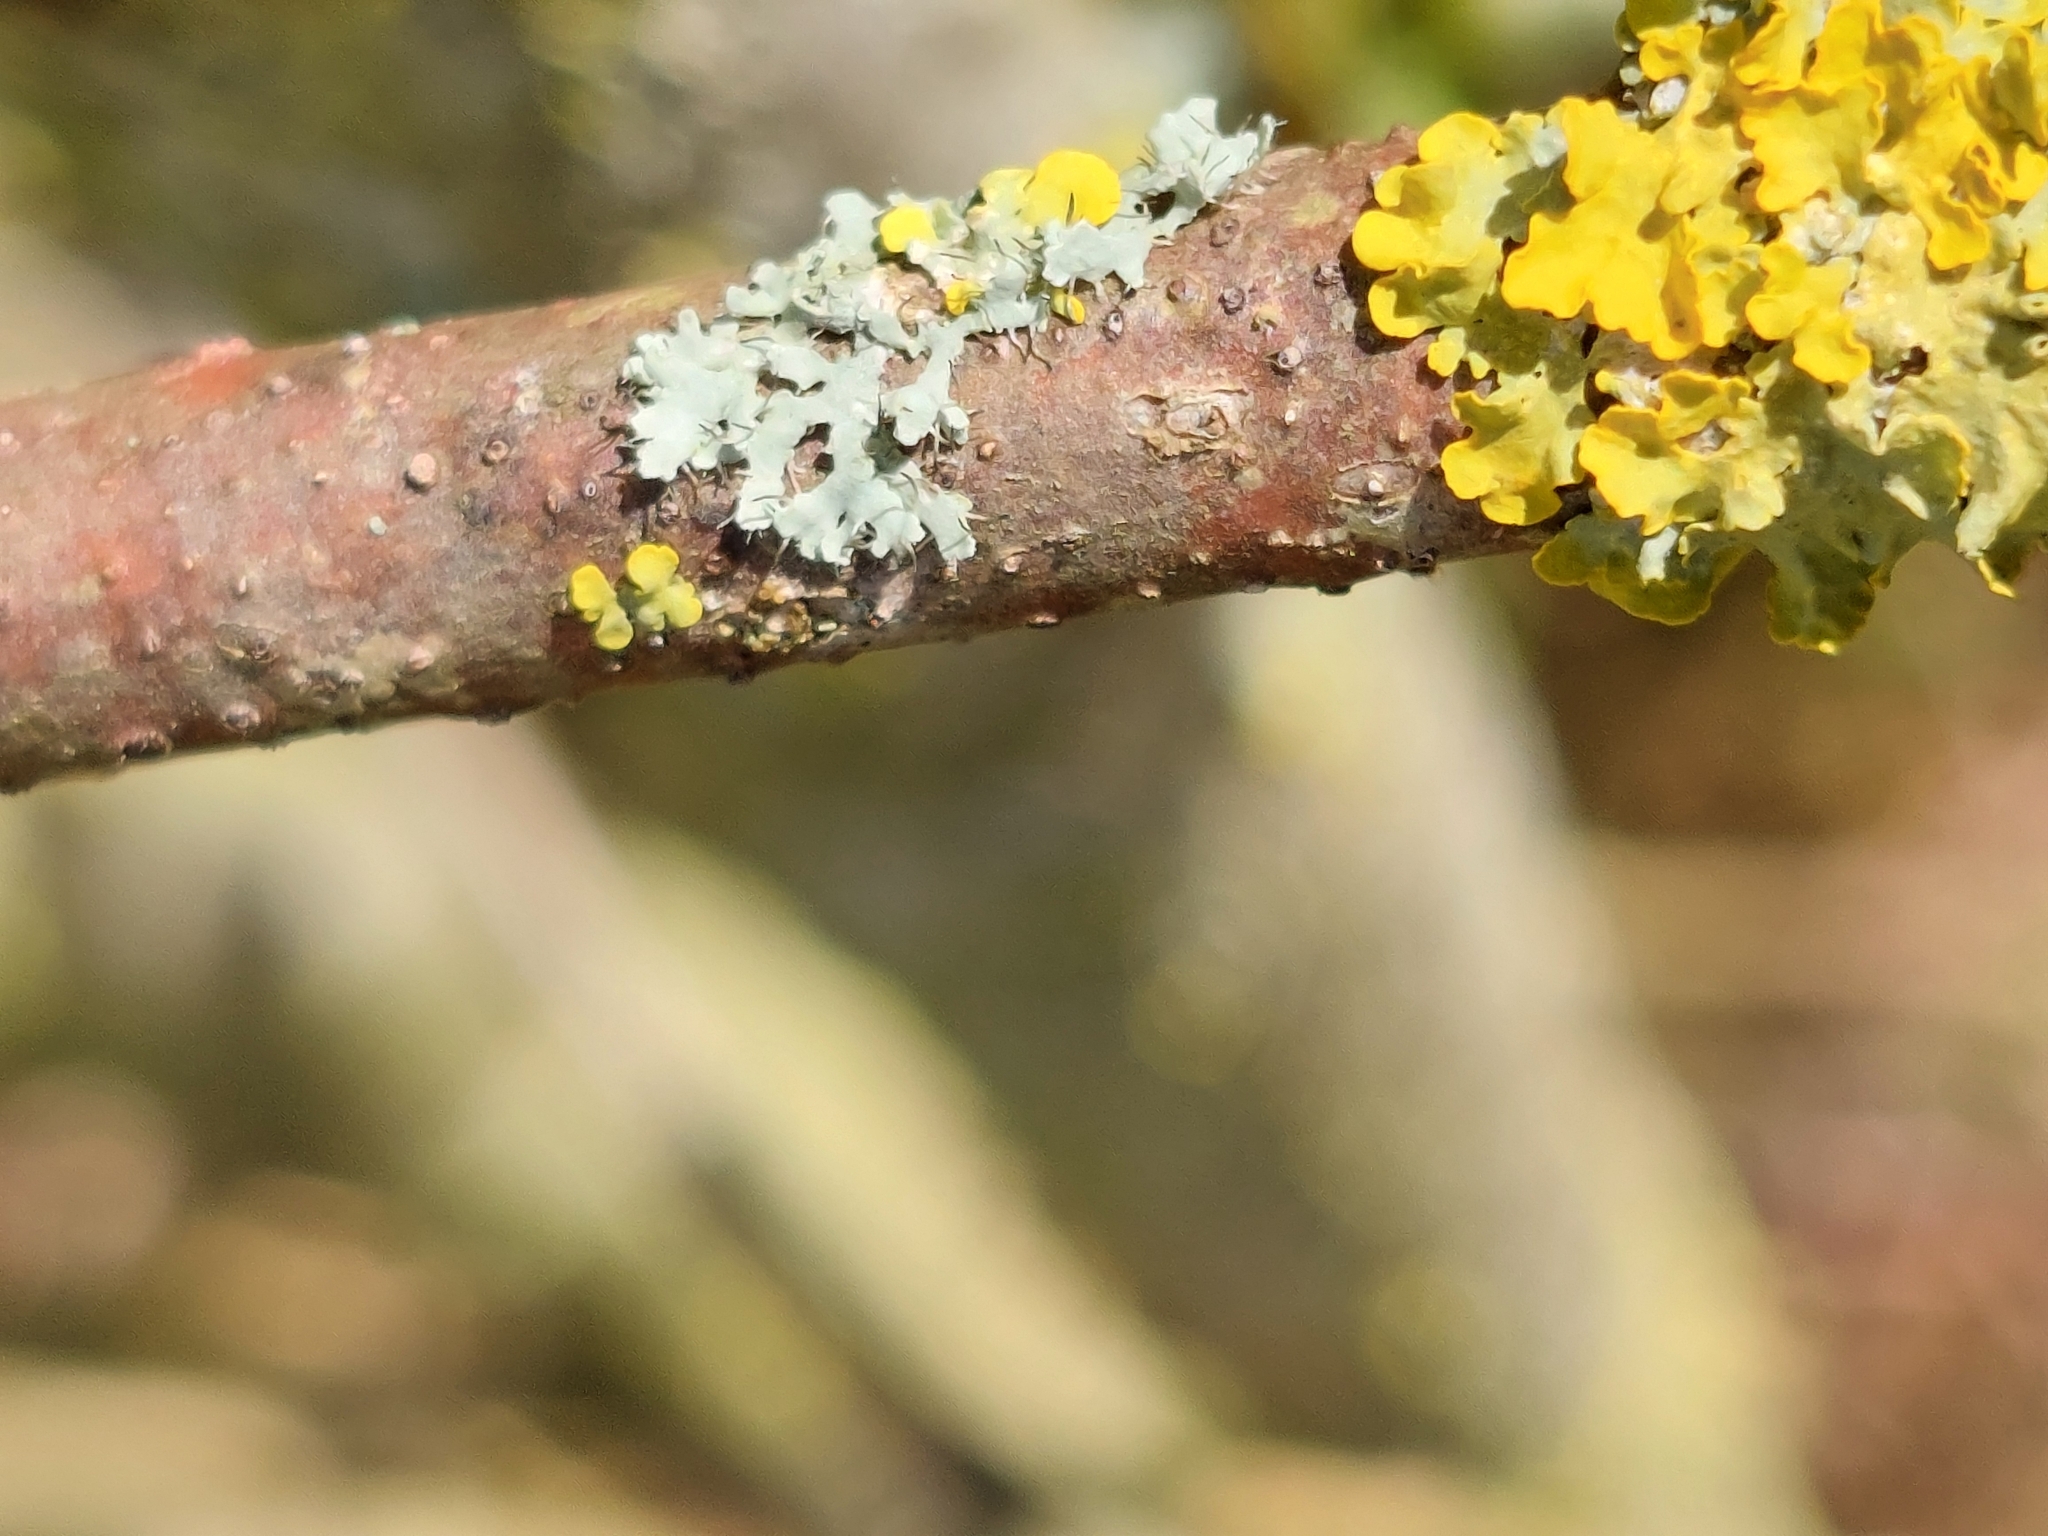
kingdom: Fungi
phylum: Ascomycota
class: Lecanoromycetes
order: Caliciales
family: Physciaceae
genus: Physcia
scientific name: Physcia adscendens
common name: Hooded rosette lichen
